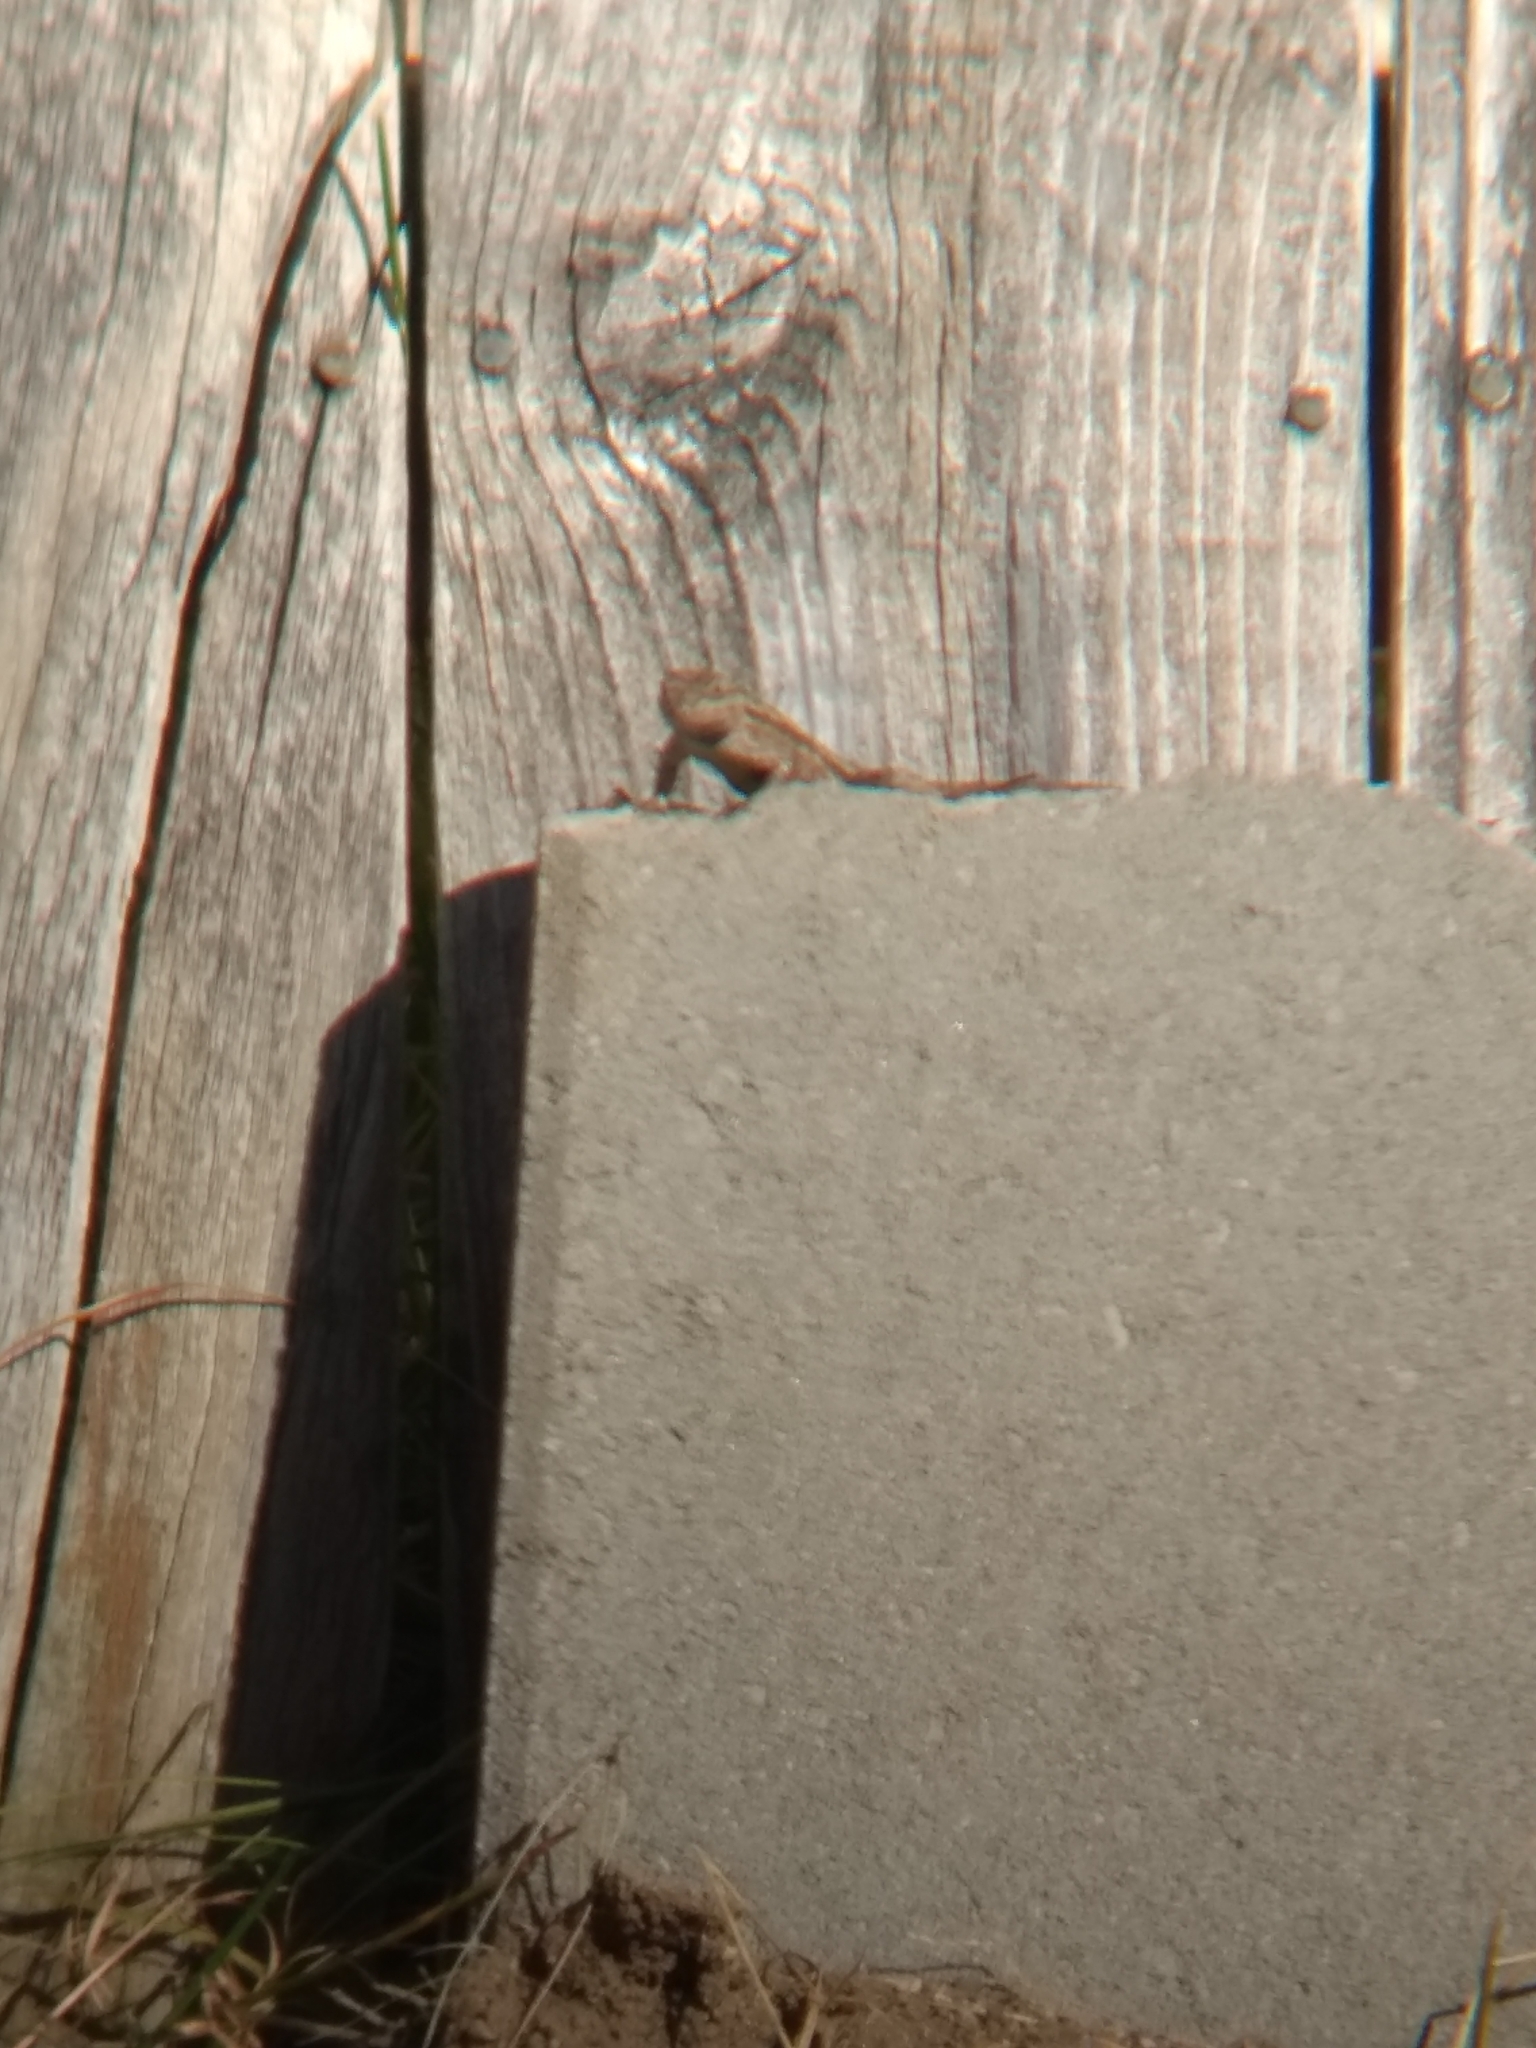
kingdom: Animalia
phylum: Chordata
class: Squamata
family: Phrynosomatidae
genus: Sceloporus
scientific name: Sceloporus occidentalis
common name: Western fence lizard
